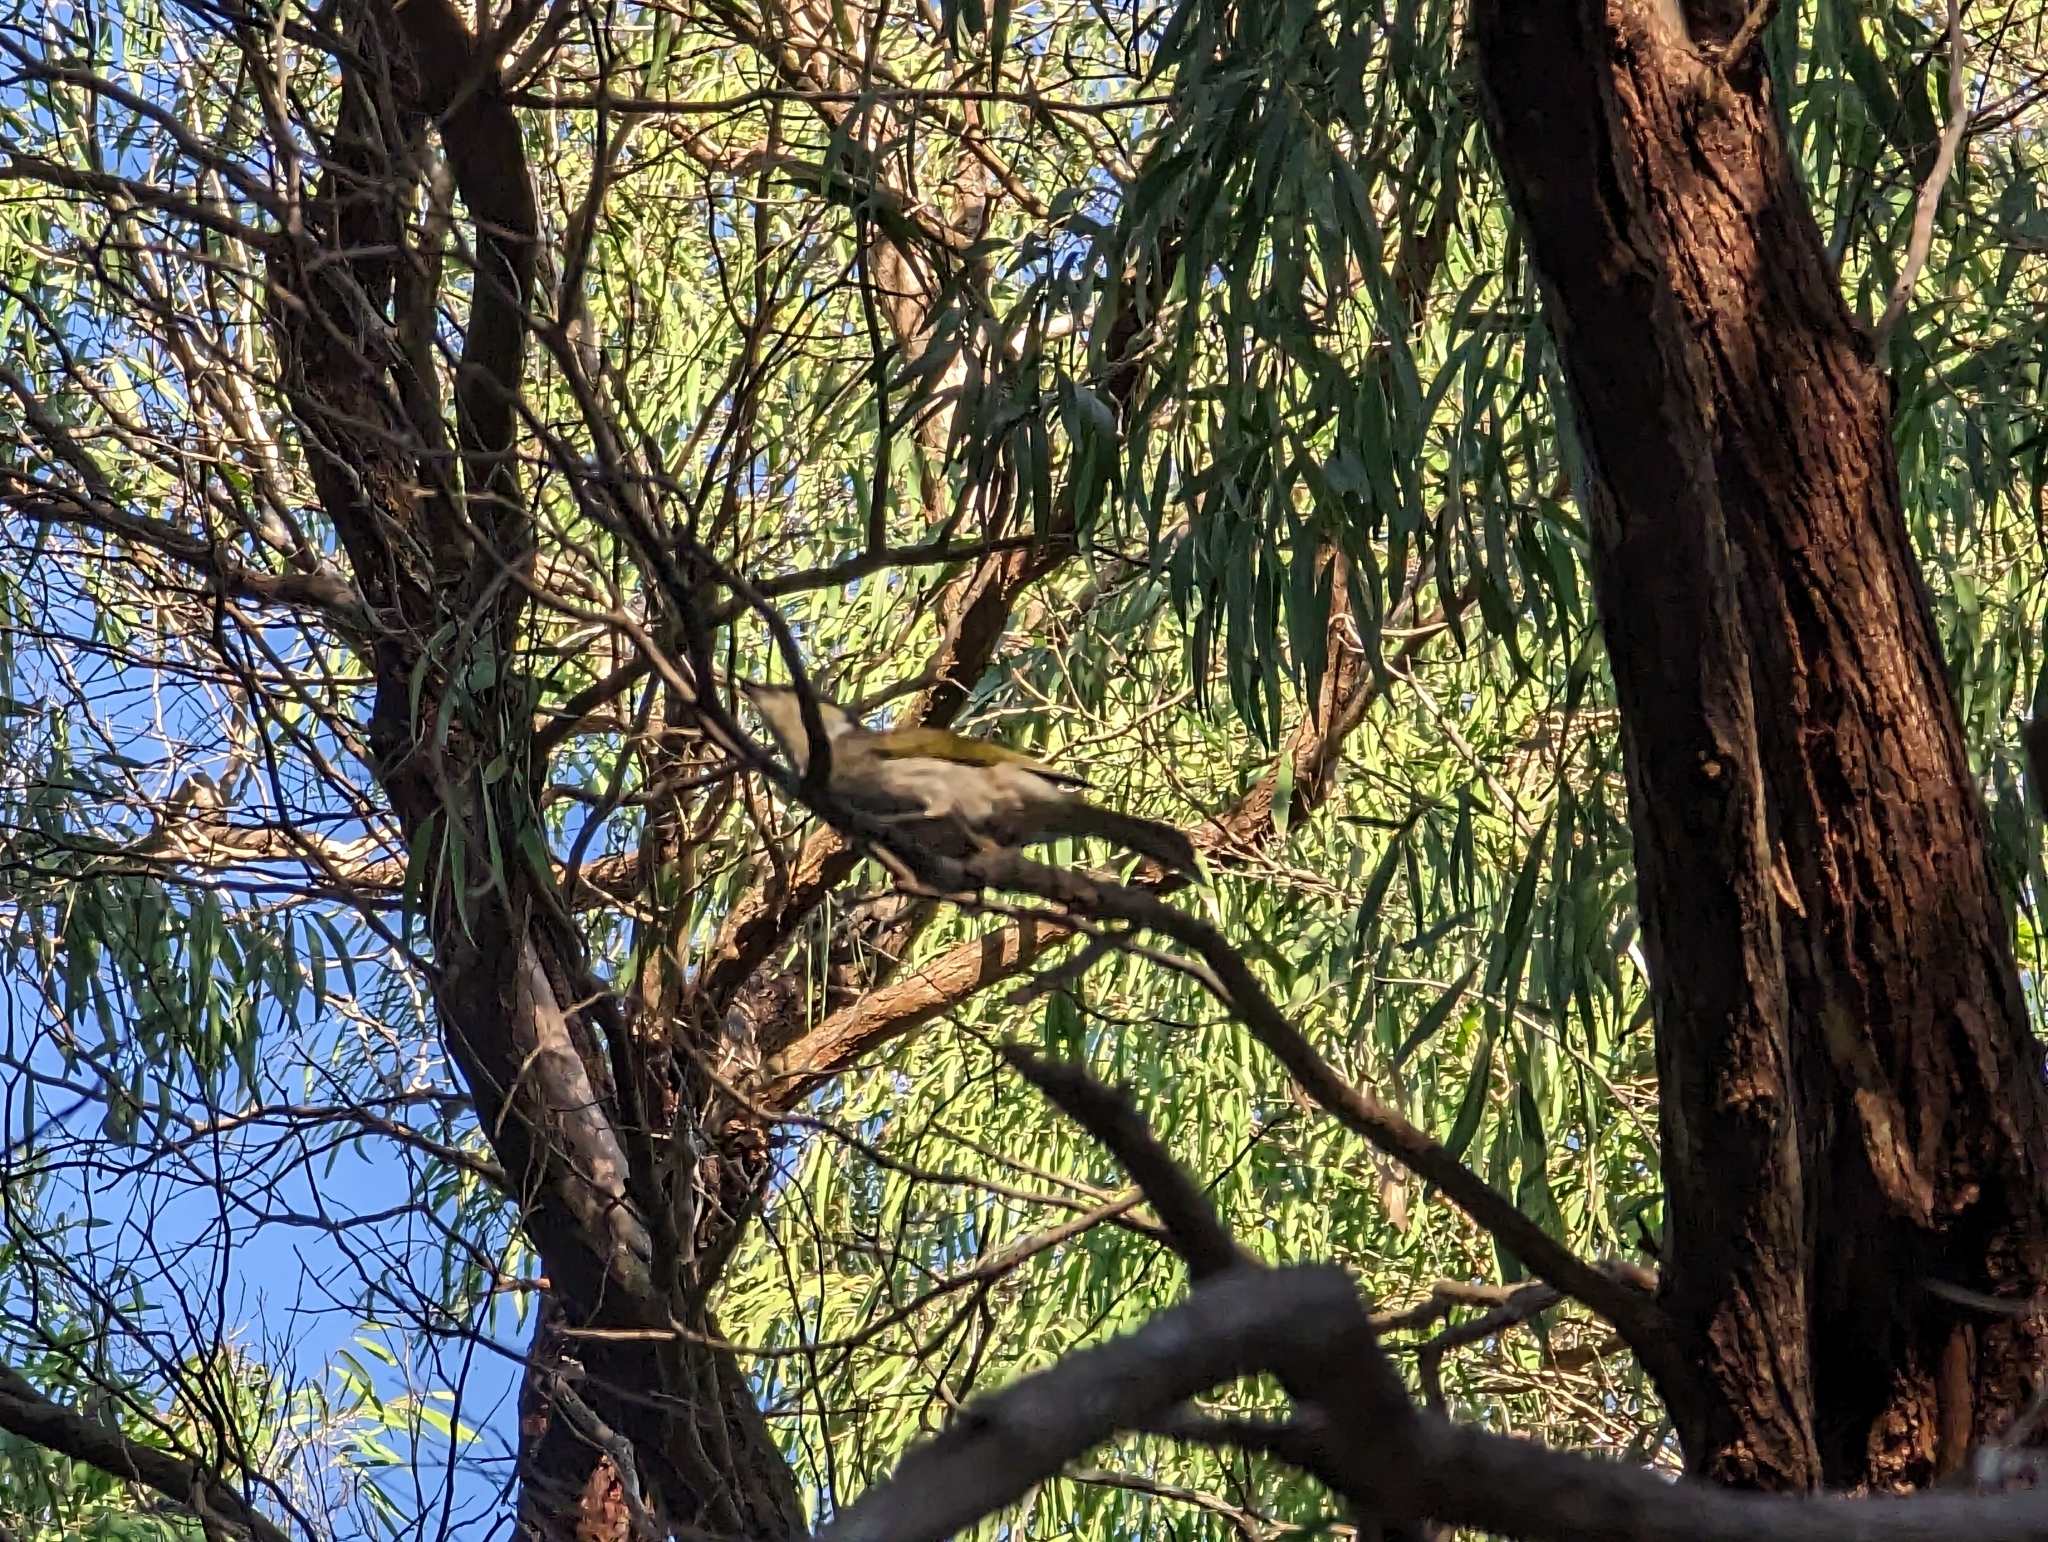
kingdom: Animalia
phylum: Chordata
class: Aves
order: Passeriformes
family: Meliphagidae
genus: Gavicalis
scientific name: Gavicalis virescens
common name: Singing honeyeater
